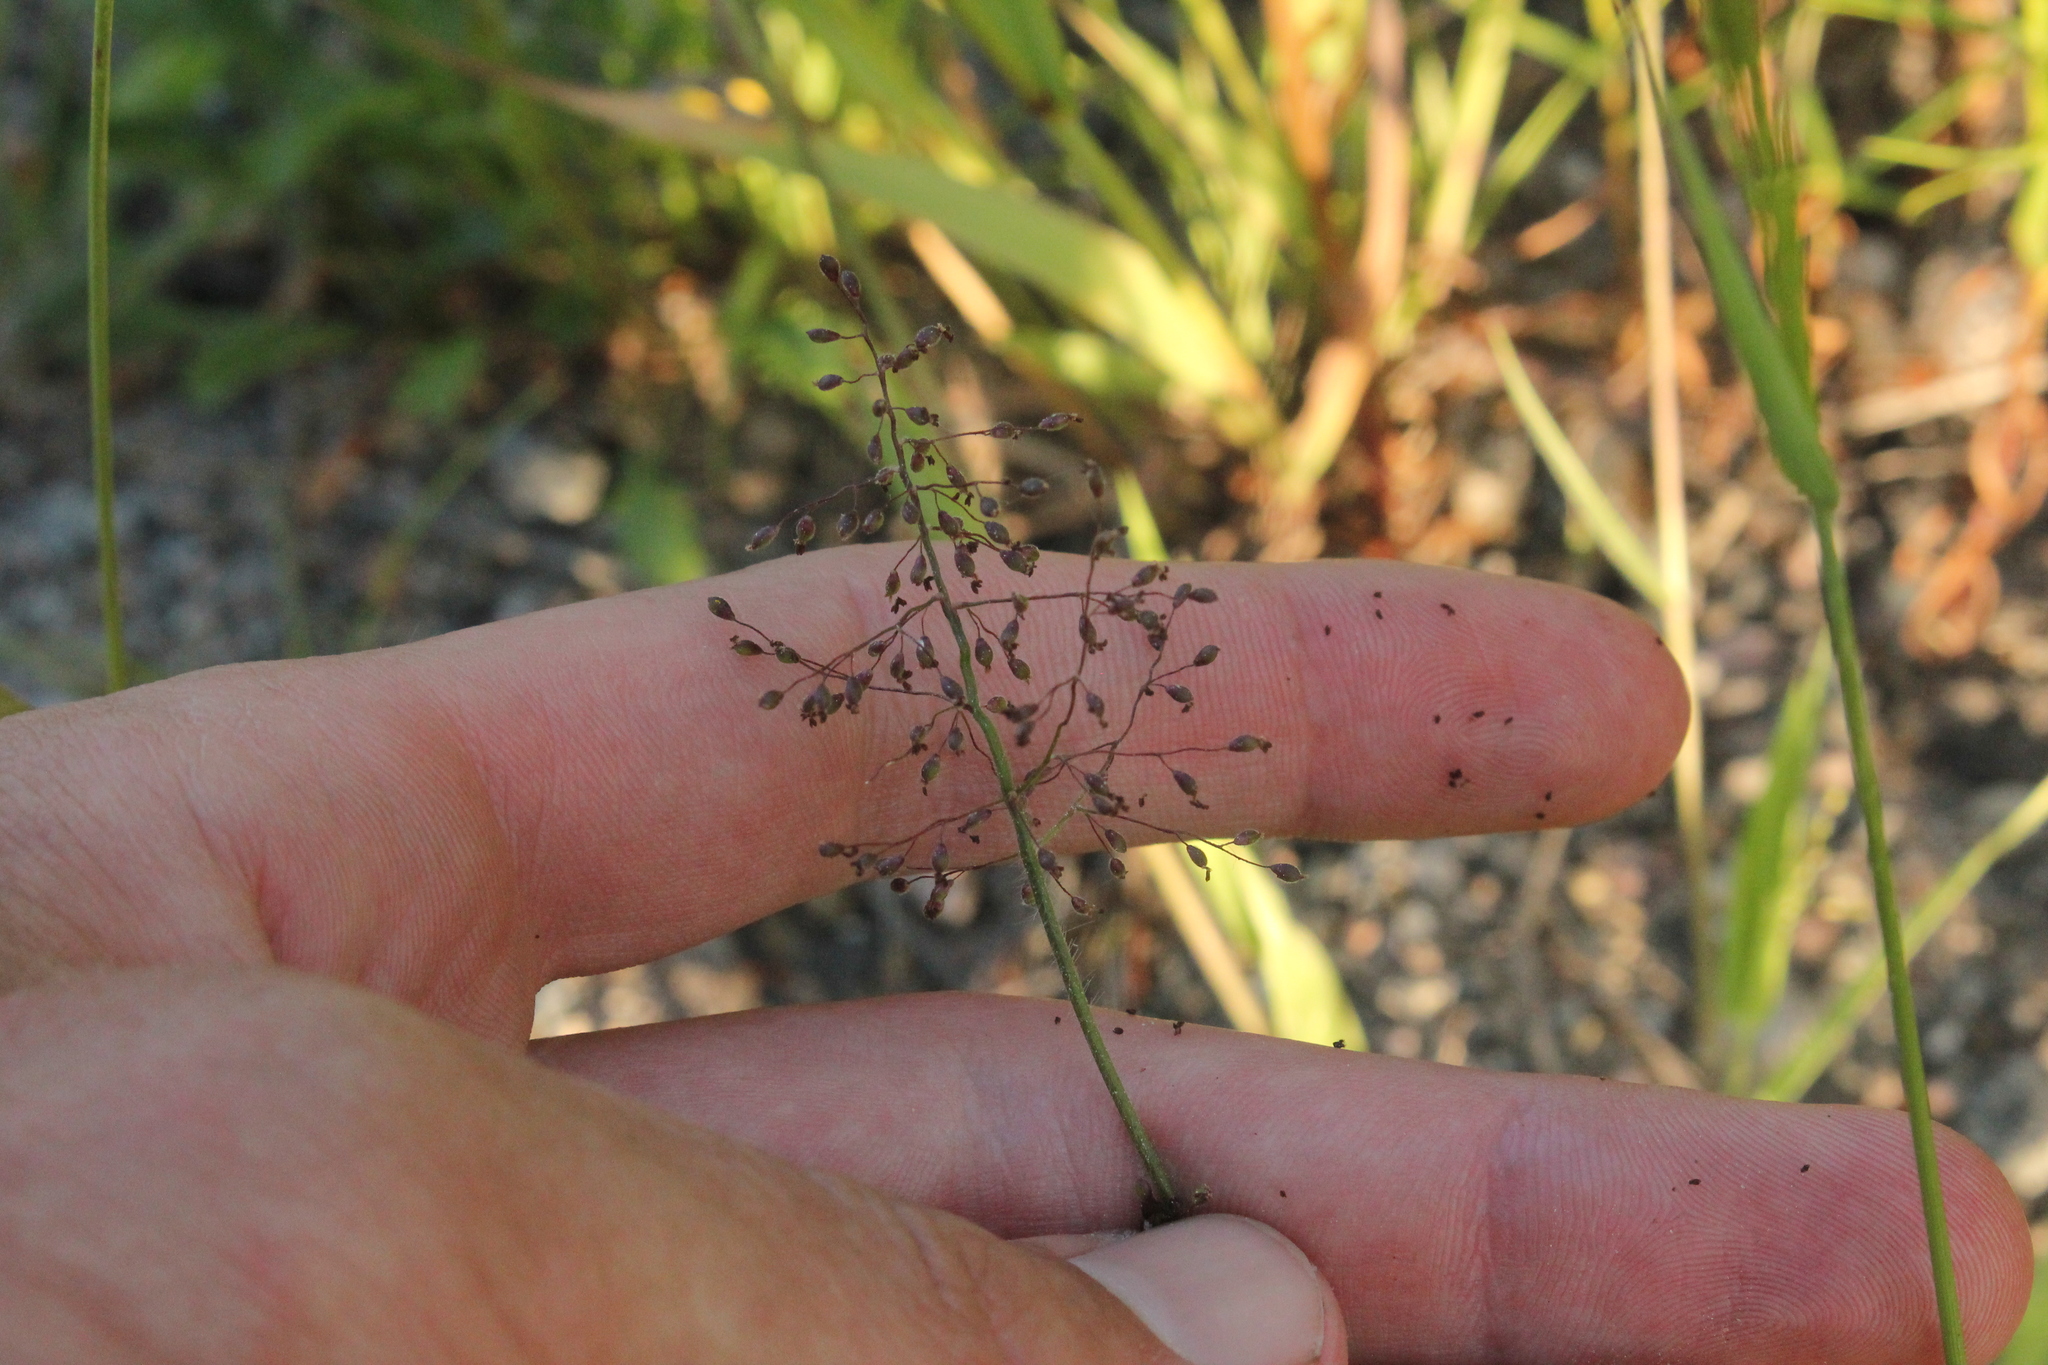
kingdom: Plantae
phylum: Tracheophyta
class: Liliopsida
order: Poales
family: Poaceae
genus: Dichanthelium
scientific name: Dichanthelium acuminatum
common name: Hairy panic grass
